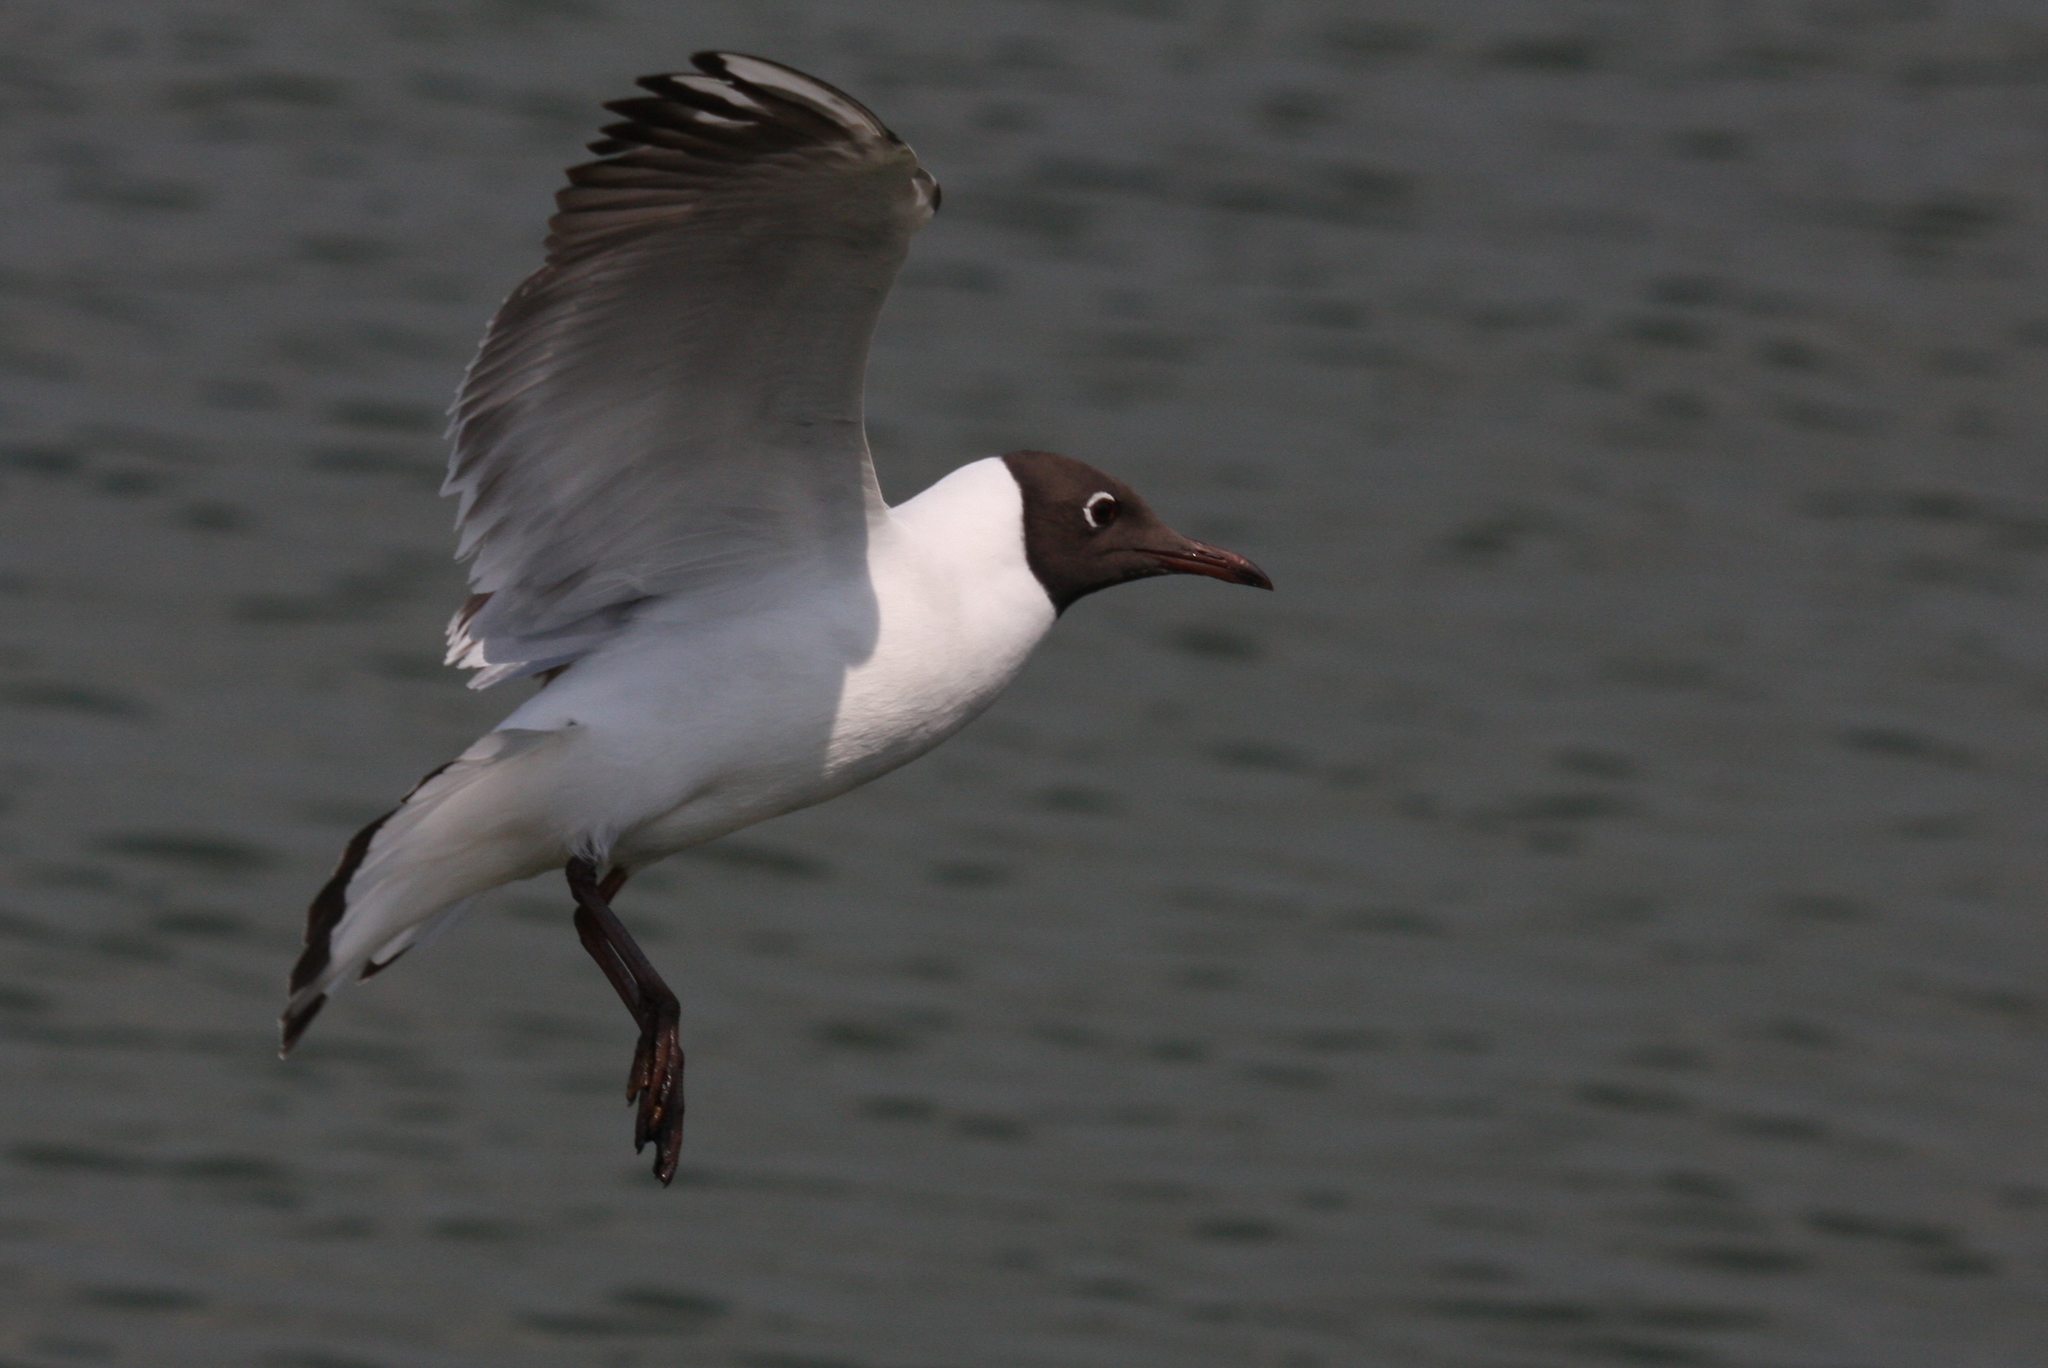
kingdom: Animalia
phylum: Chordata
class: Aves
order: Charadriiformes
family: Laridae
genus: Chroicocephalus
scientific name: Chroicocephalus ridibundus
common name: Black-headed gull
